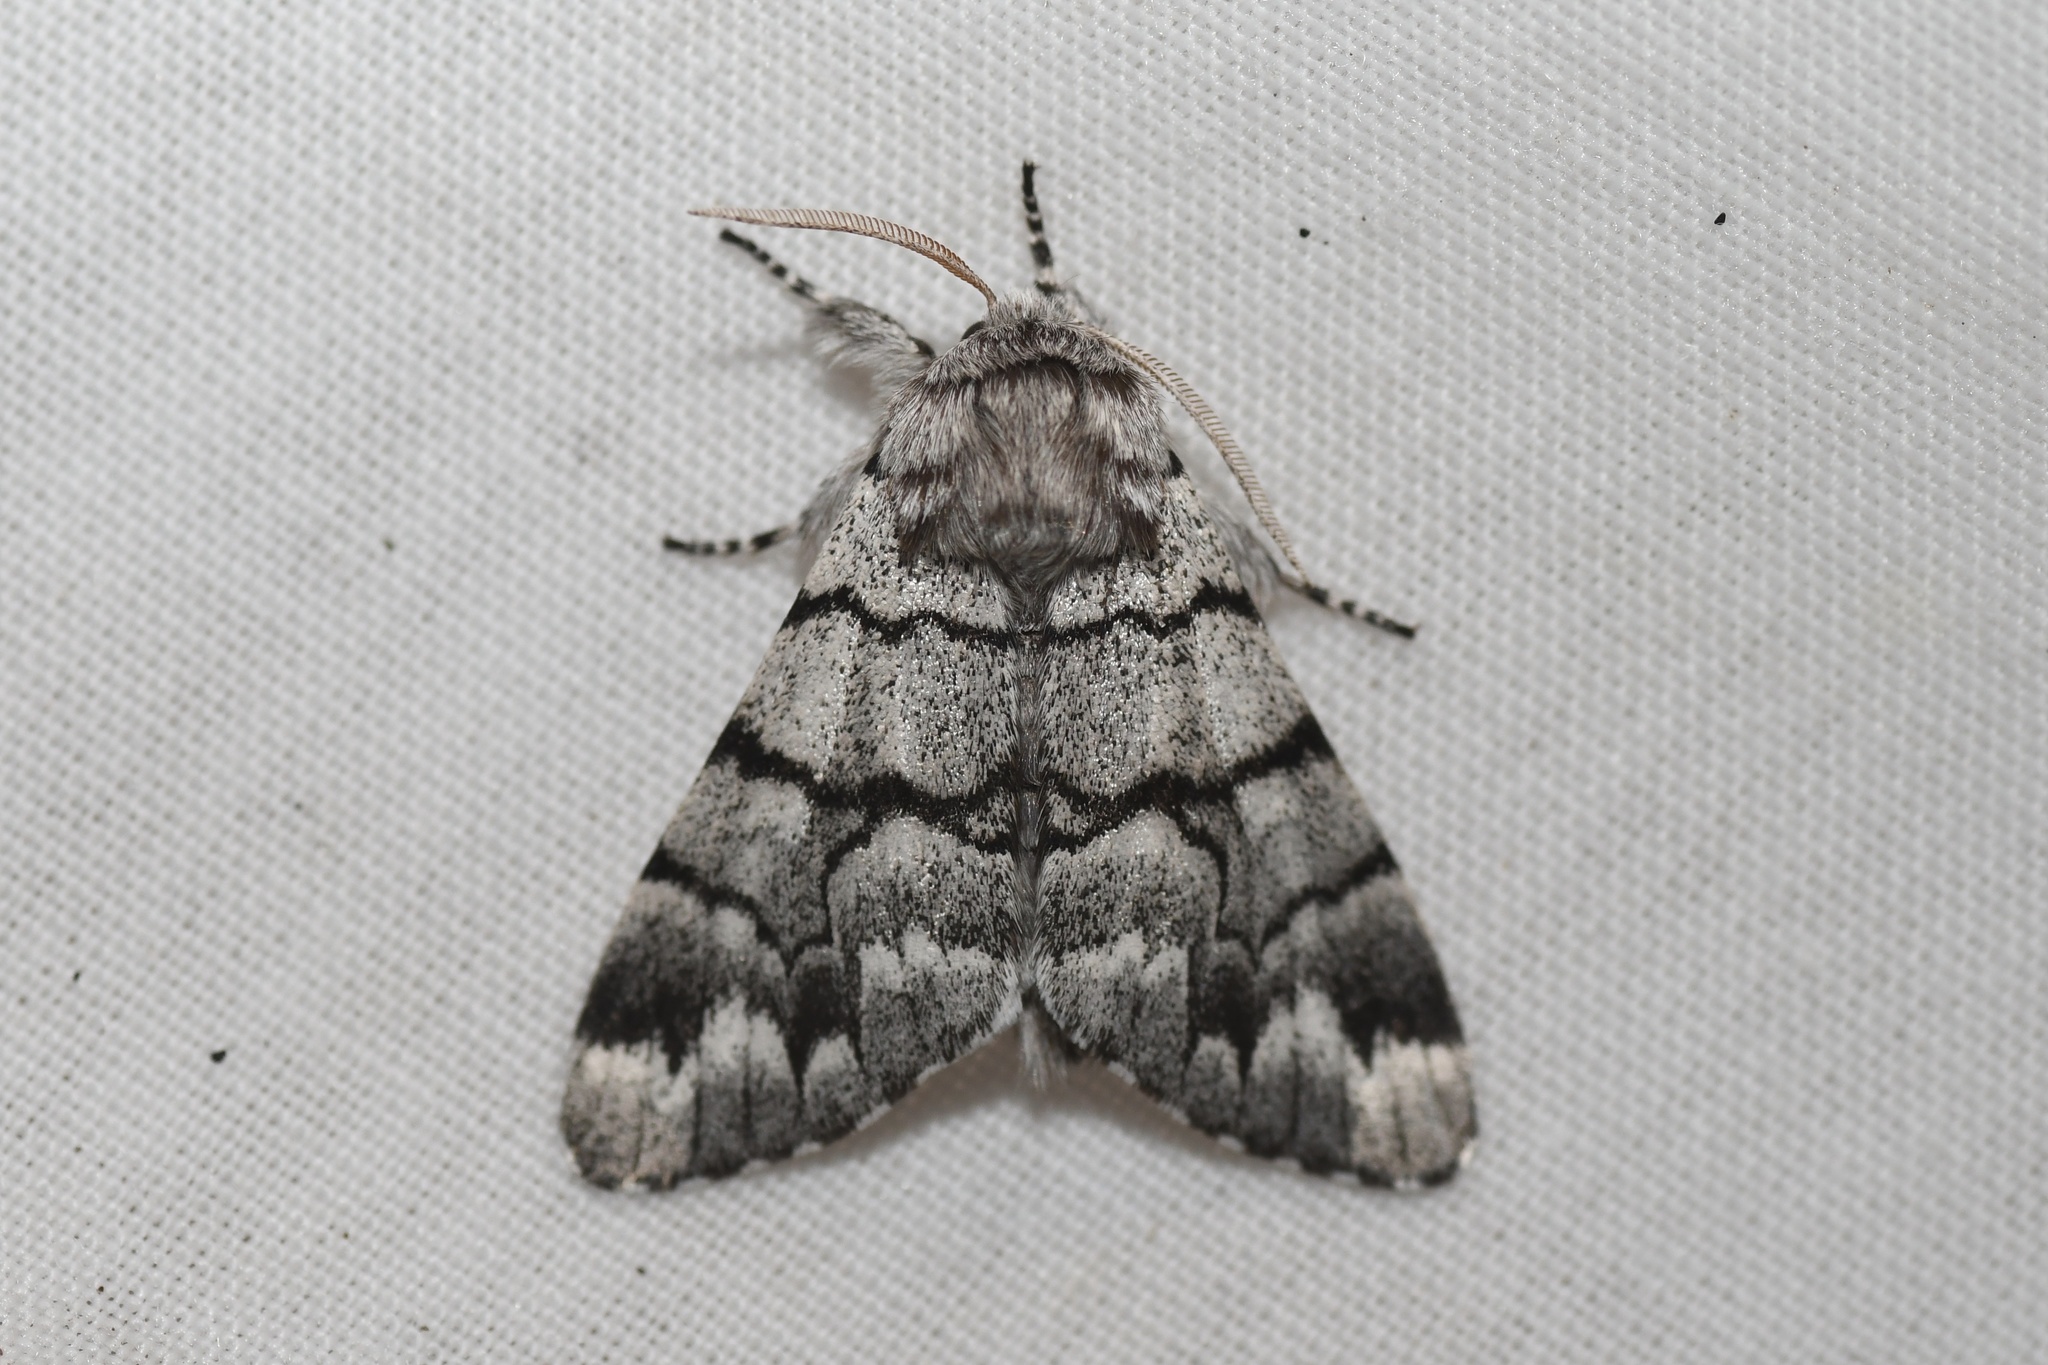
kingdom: Animalia
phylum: Arthropoda
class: Insecta
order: Lepidoptera
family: Noctuidae
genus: Panthea
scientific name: Panthea furcilla
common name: Eastern panthea moth
